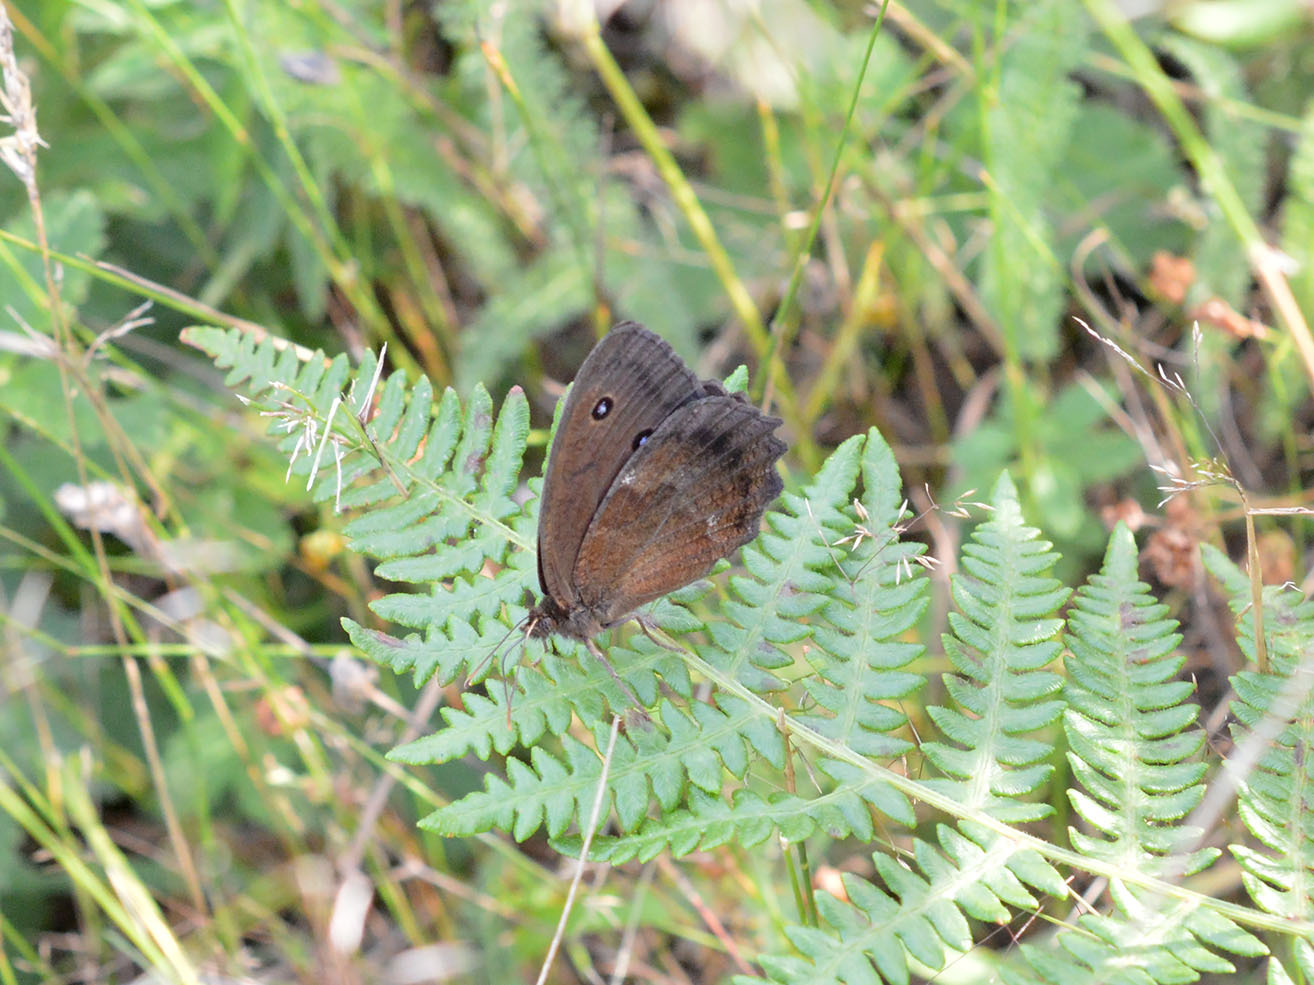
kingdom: Animalia
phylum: Arthropoda
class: Insecta
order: Lepidoptera
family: Nymphalidae
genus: Minois
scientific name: Minois dryas
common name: Dryad
